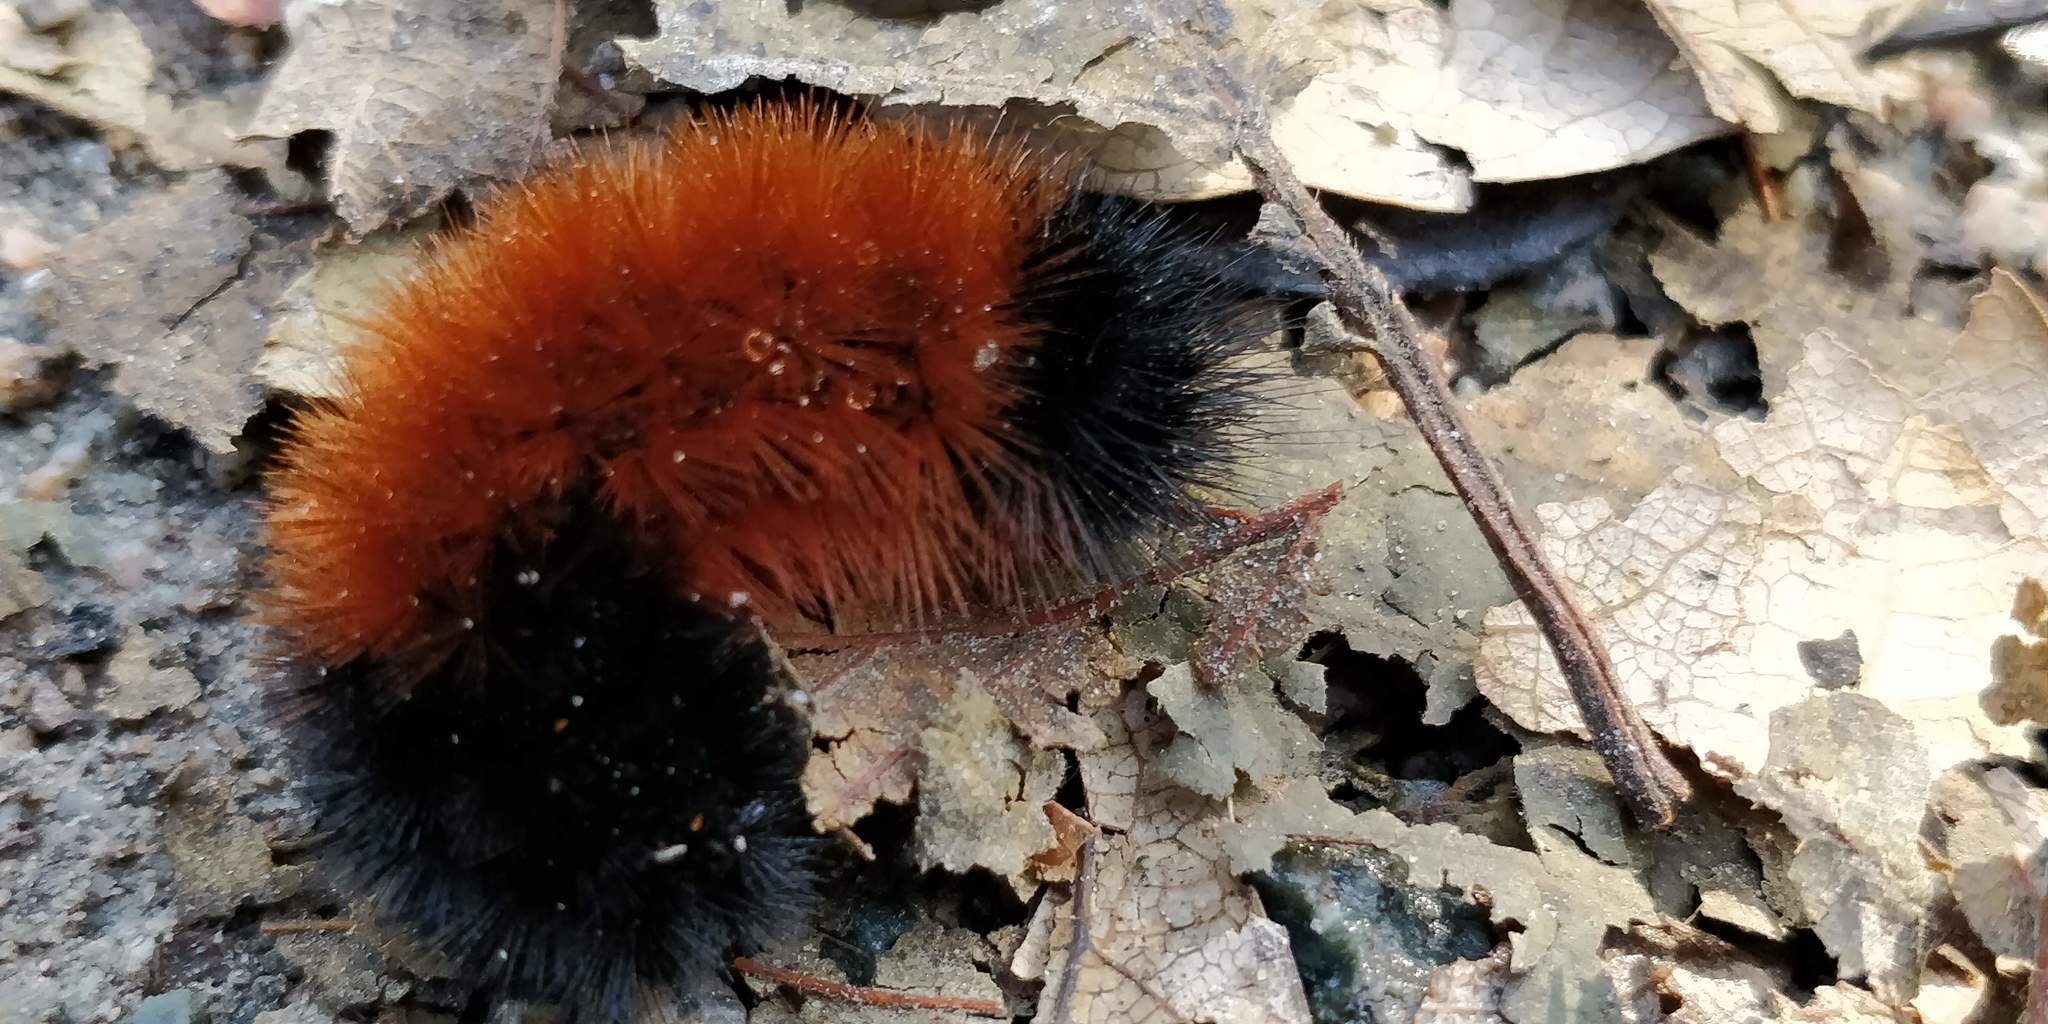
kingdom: Animalia
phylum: Arthropoda
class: Insecta
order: Lepidoptera
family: Erebidae
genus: Pyrrharctia
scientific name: Pyrrharctia isabella
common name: Isabella tiger moth
